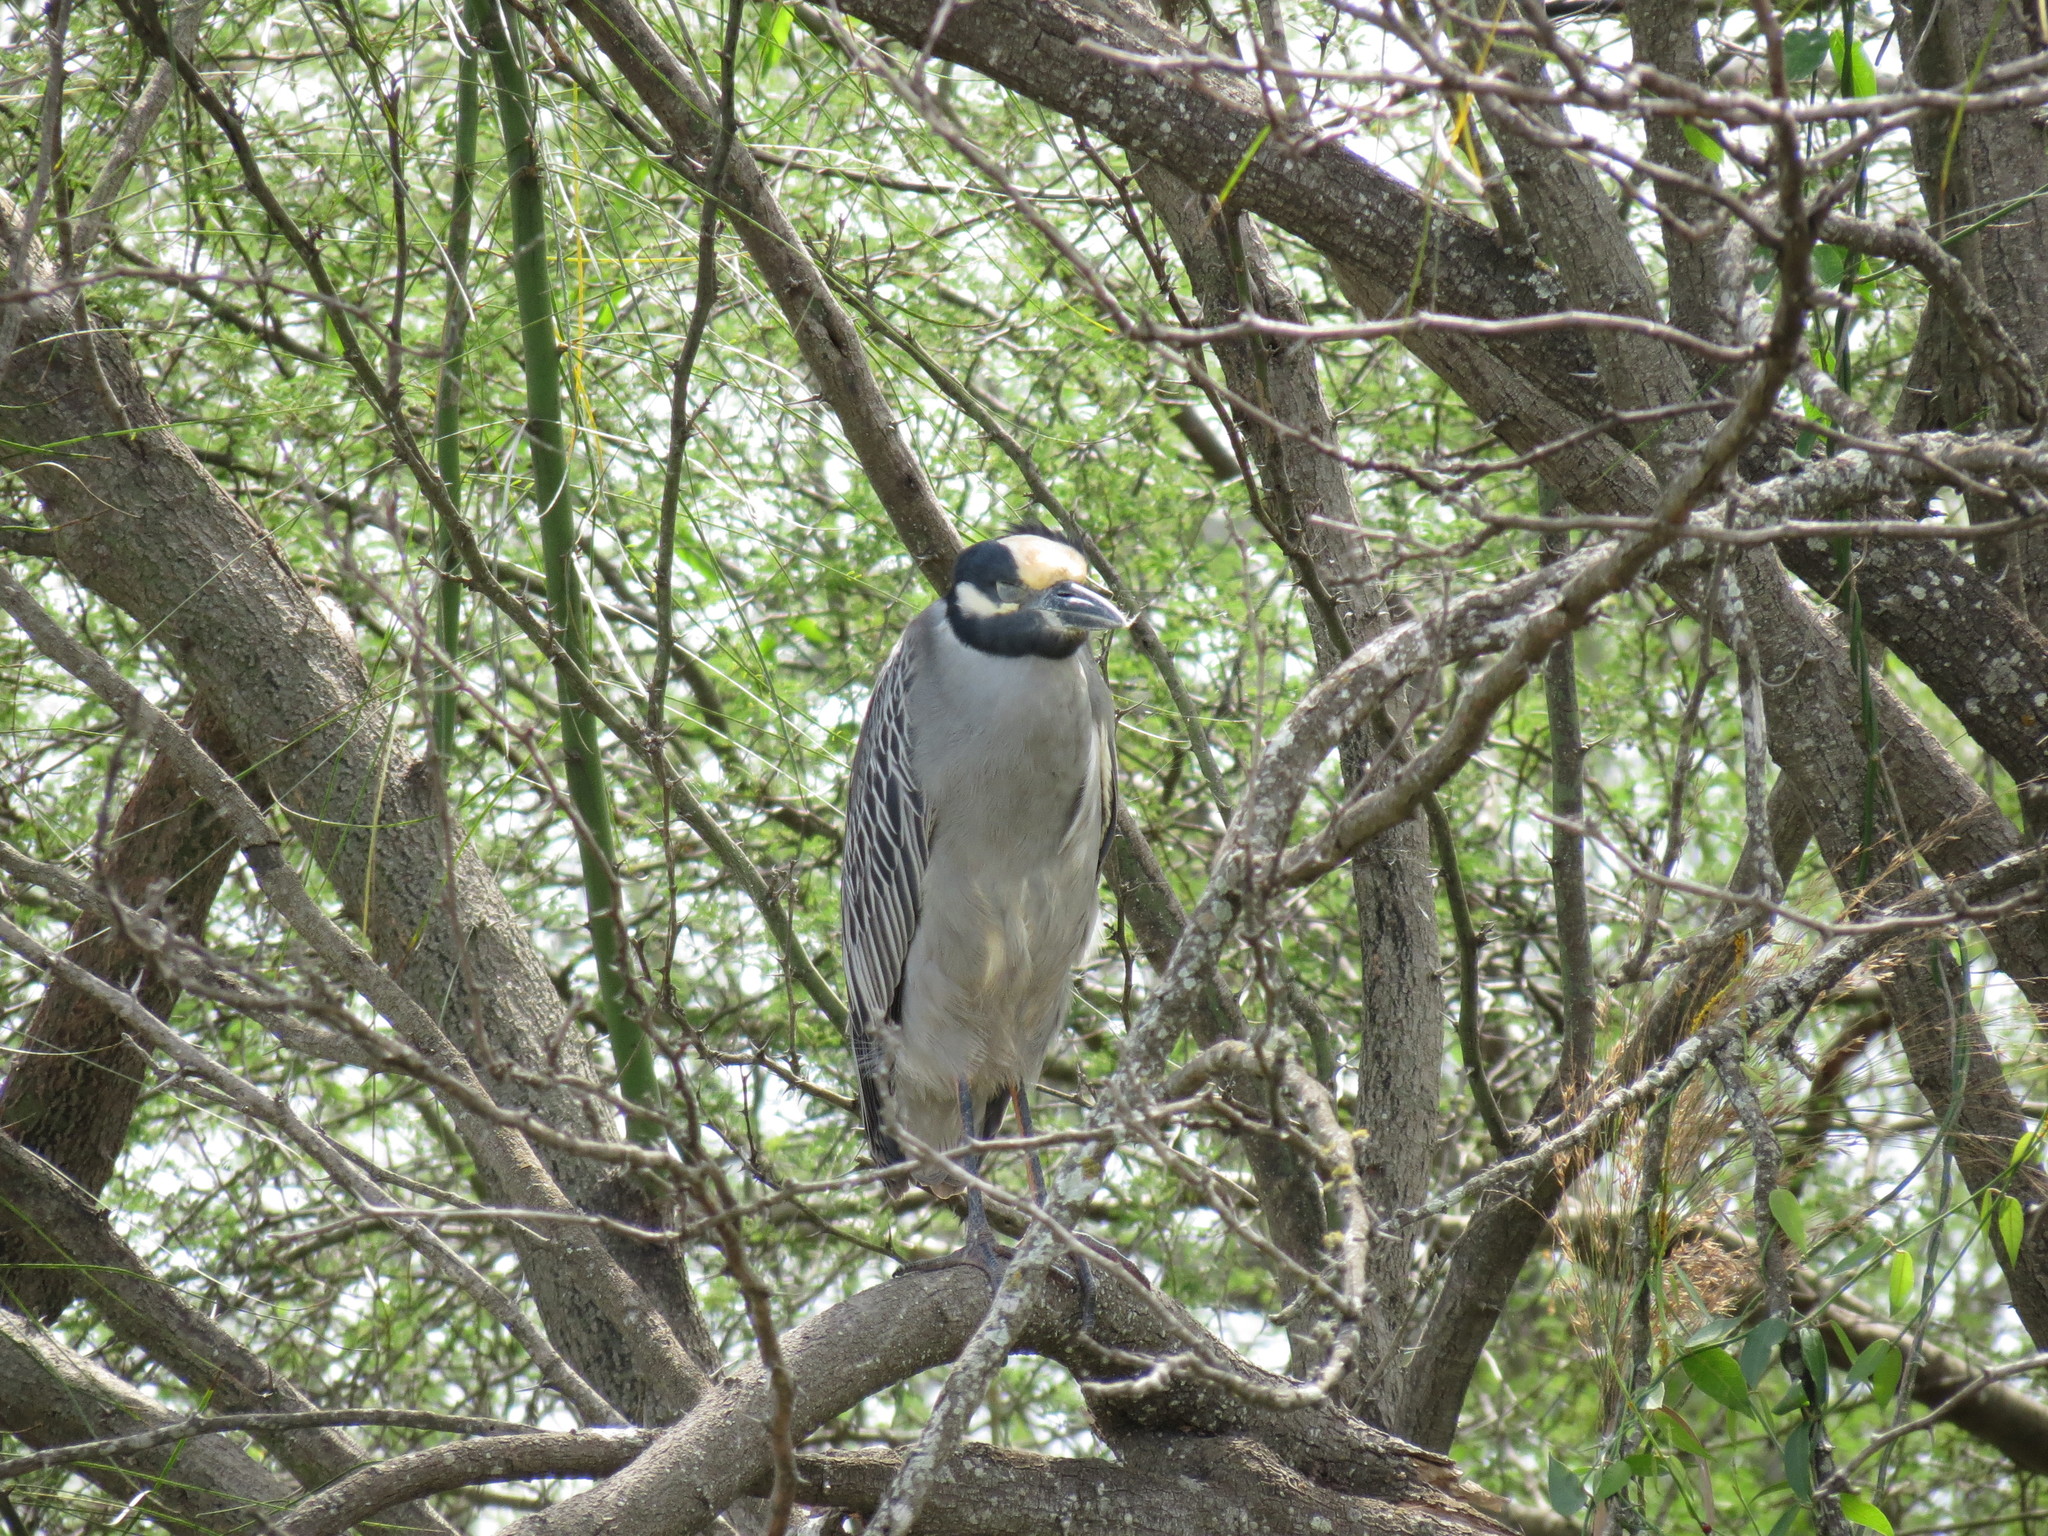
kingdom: Animalia
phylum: Chordata
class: Aves
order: Pelecaniformes
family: Ardeidae
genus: Nyctanassa
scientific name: Nyctanassa violacea
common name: Yellow-crowned night heron
